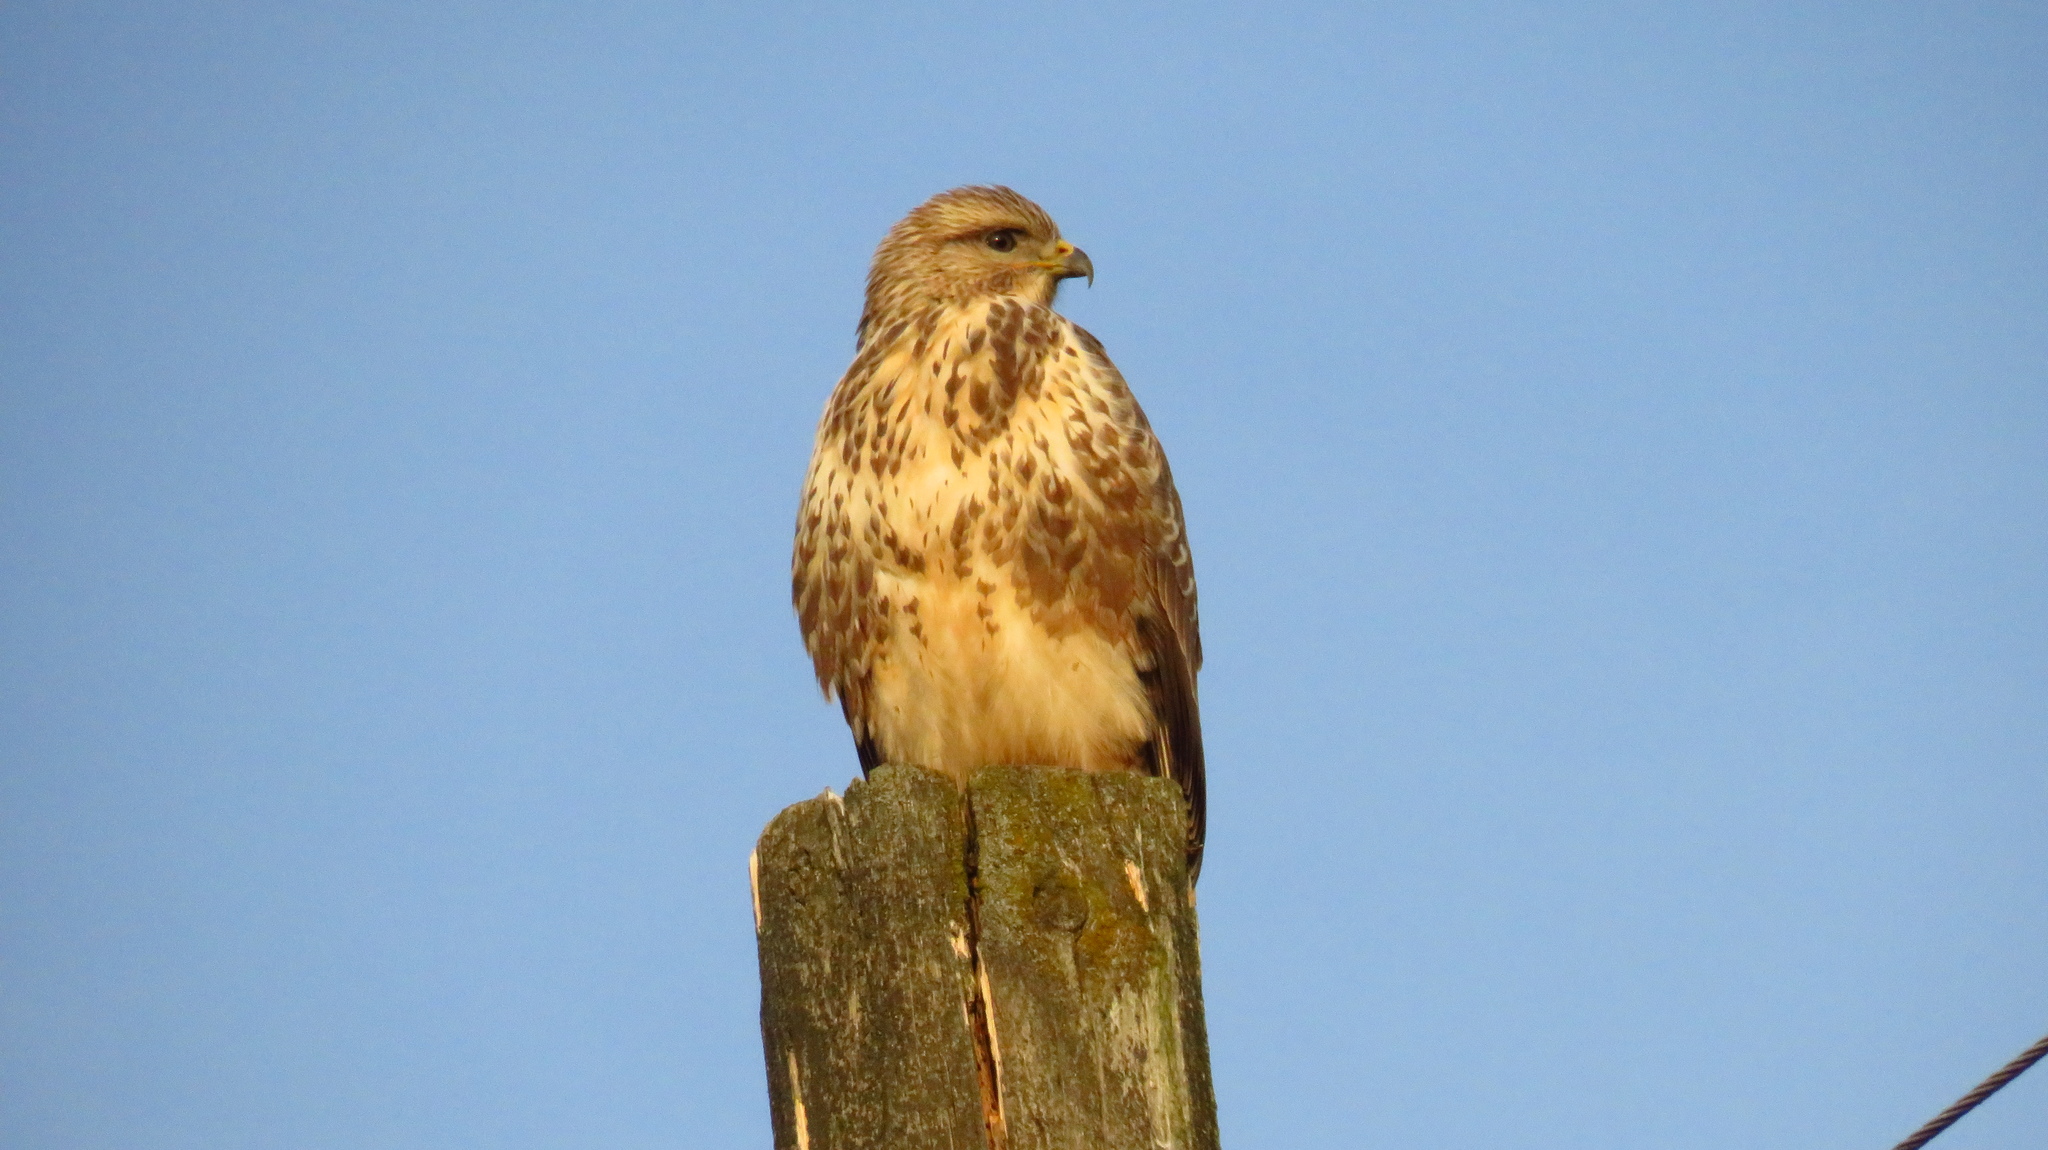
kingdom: Animalia
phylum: Chordata
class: Aves
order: Accipitriformes
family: Accipitridae
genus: Buteo
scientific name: Buteo buteo
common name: Common buzzard
